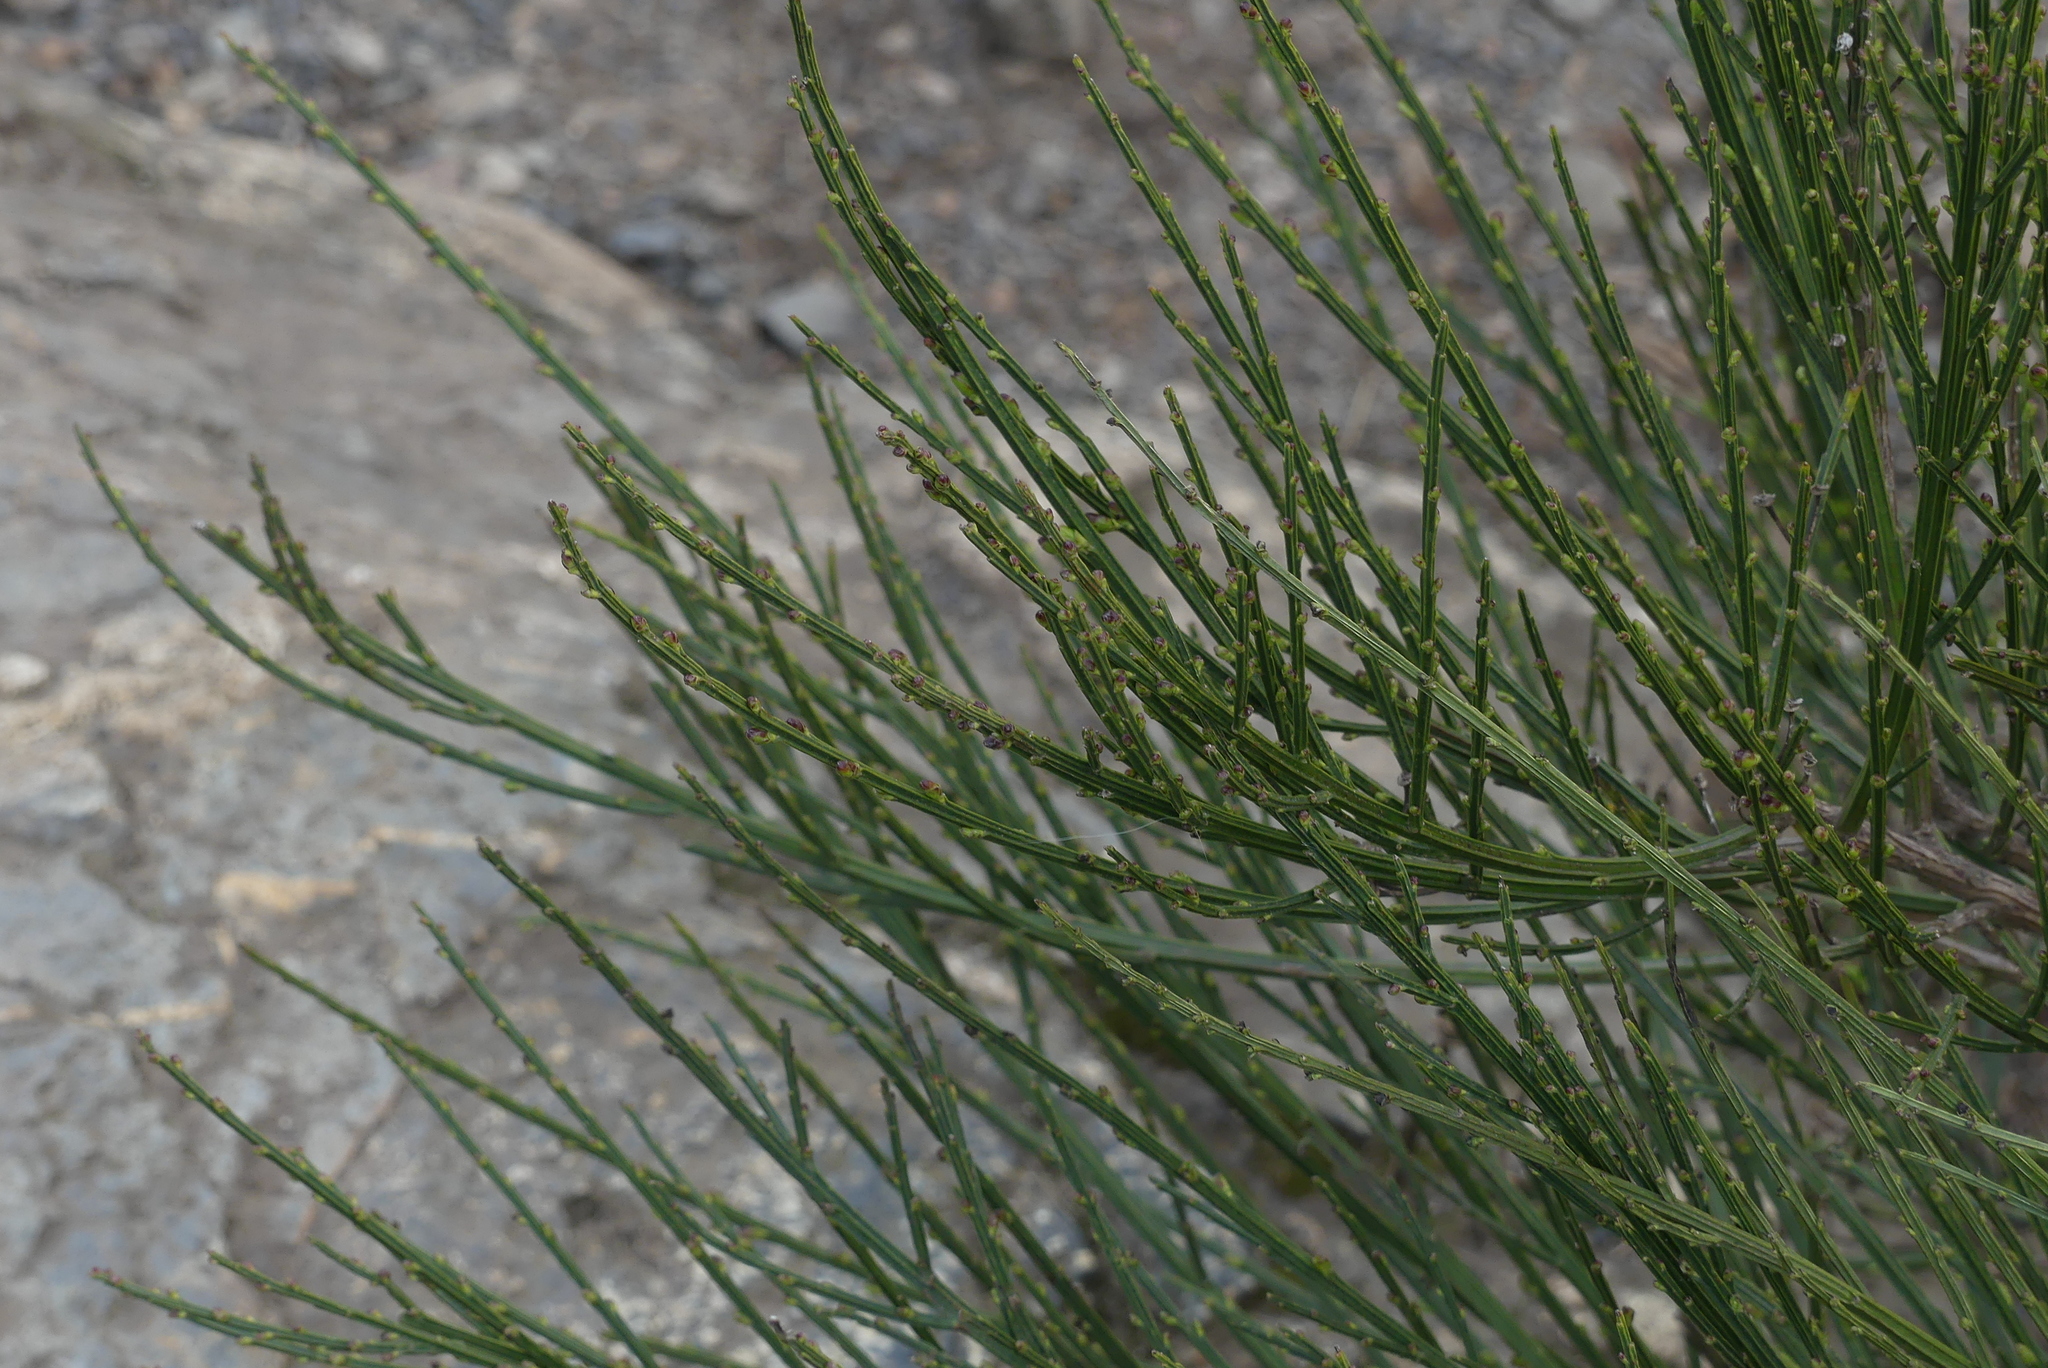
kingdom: Plantae
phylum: Tracheophyta
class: Magnoliopsida
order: Fabales
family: Fabaceae
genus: Cytisus
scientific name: Cytisus scoparius
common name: Scotch broom
